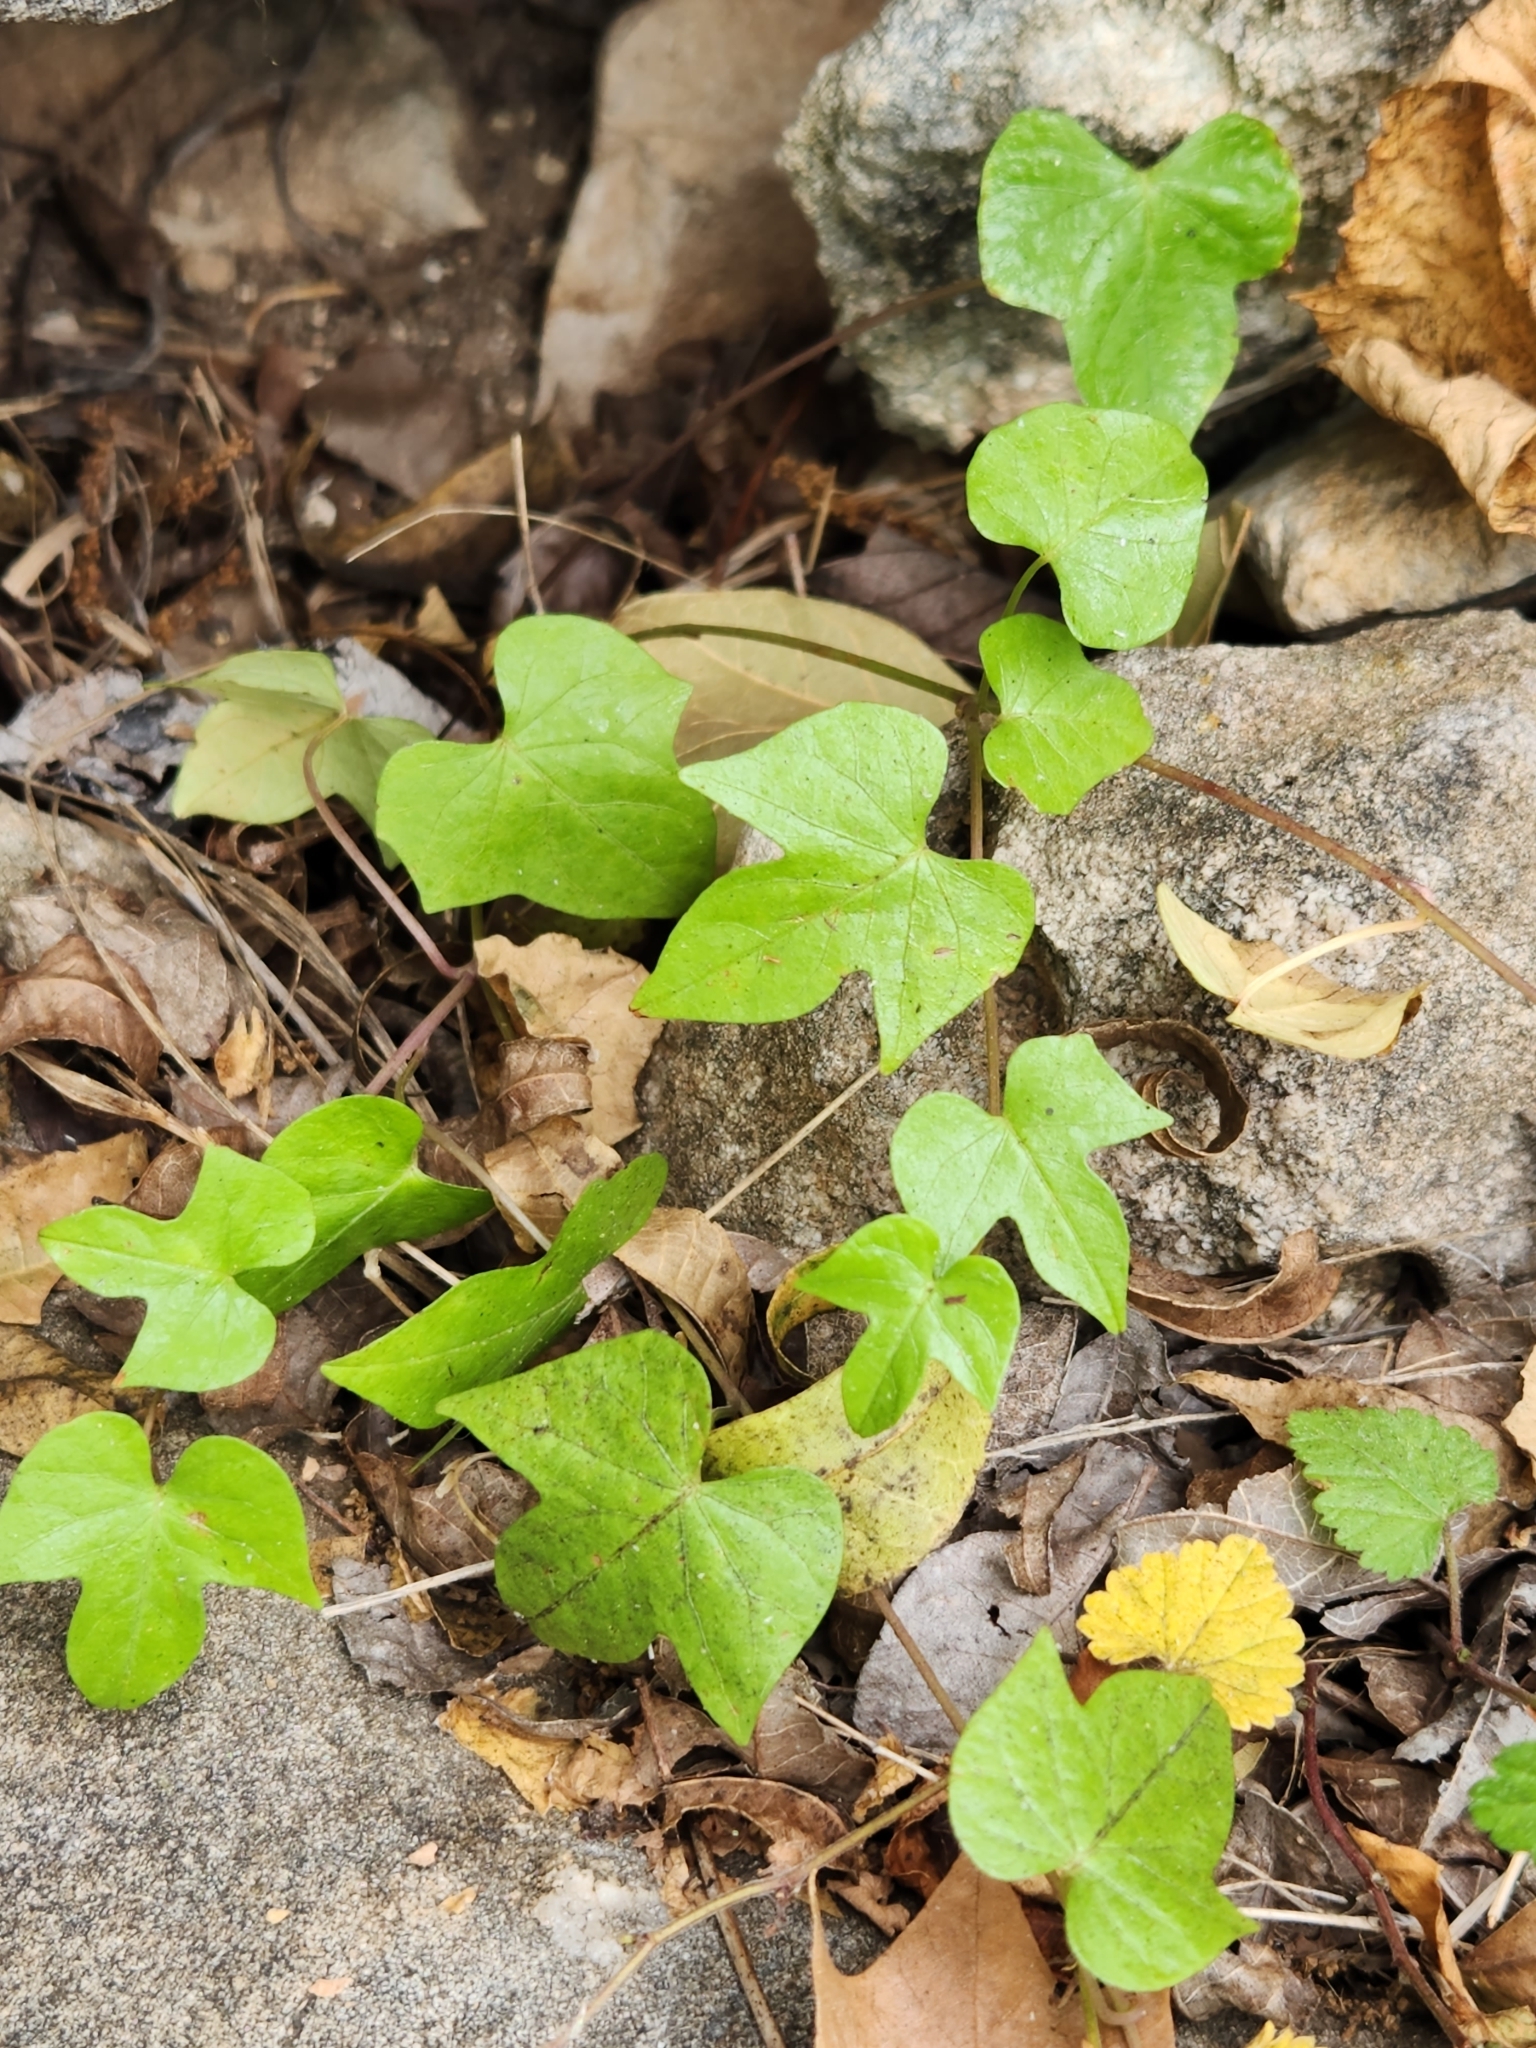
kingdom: Plantae
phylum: Tracheophyta
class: Magnoliopsida
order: Solanales
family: Convolvulaceae
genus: Ipomoea
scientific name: Ipomoea cordatotriloba
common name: Cotton morning glory
